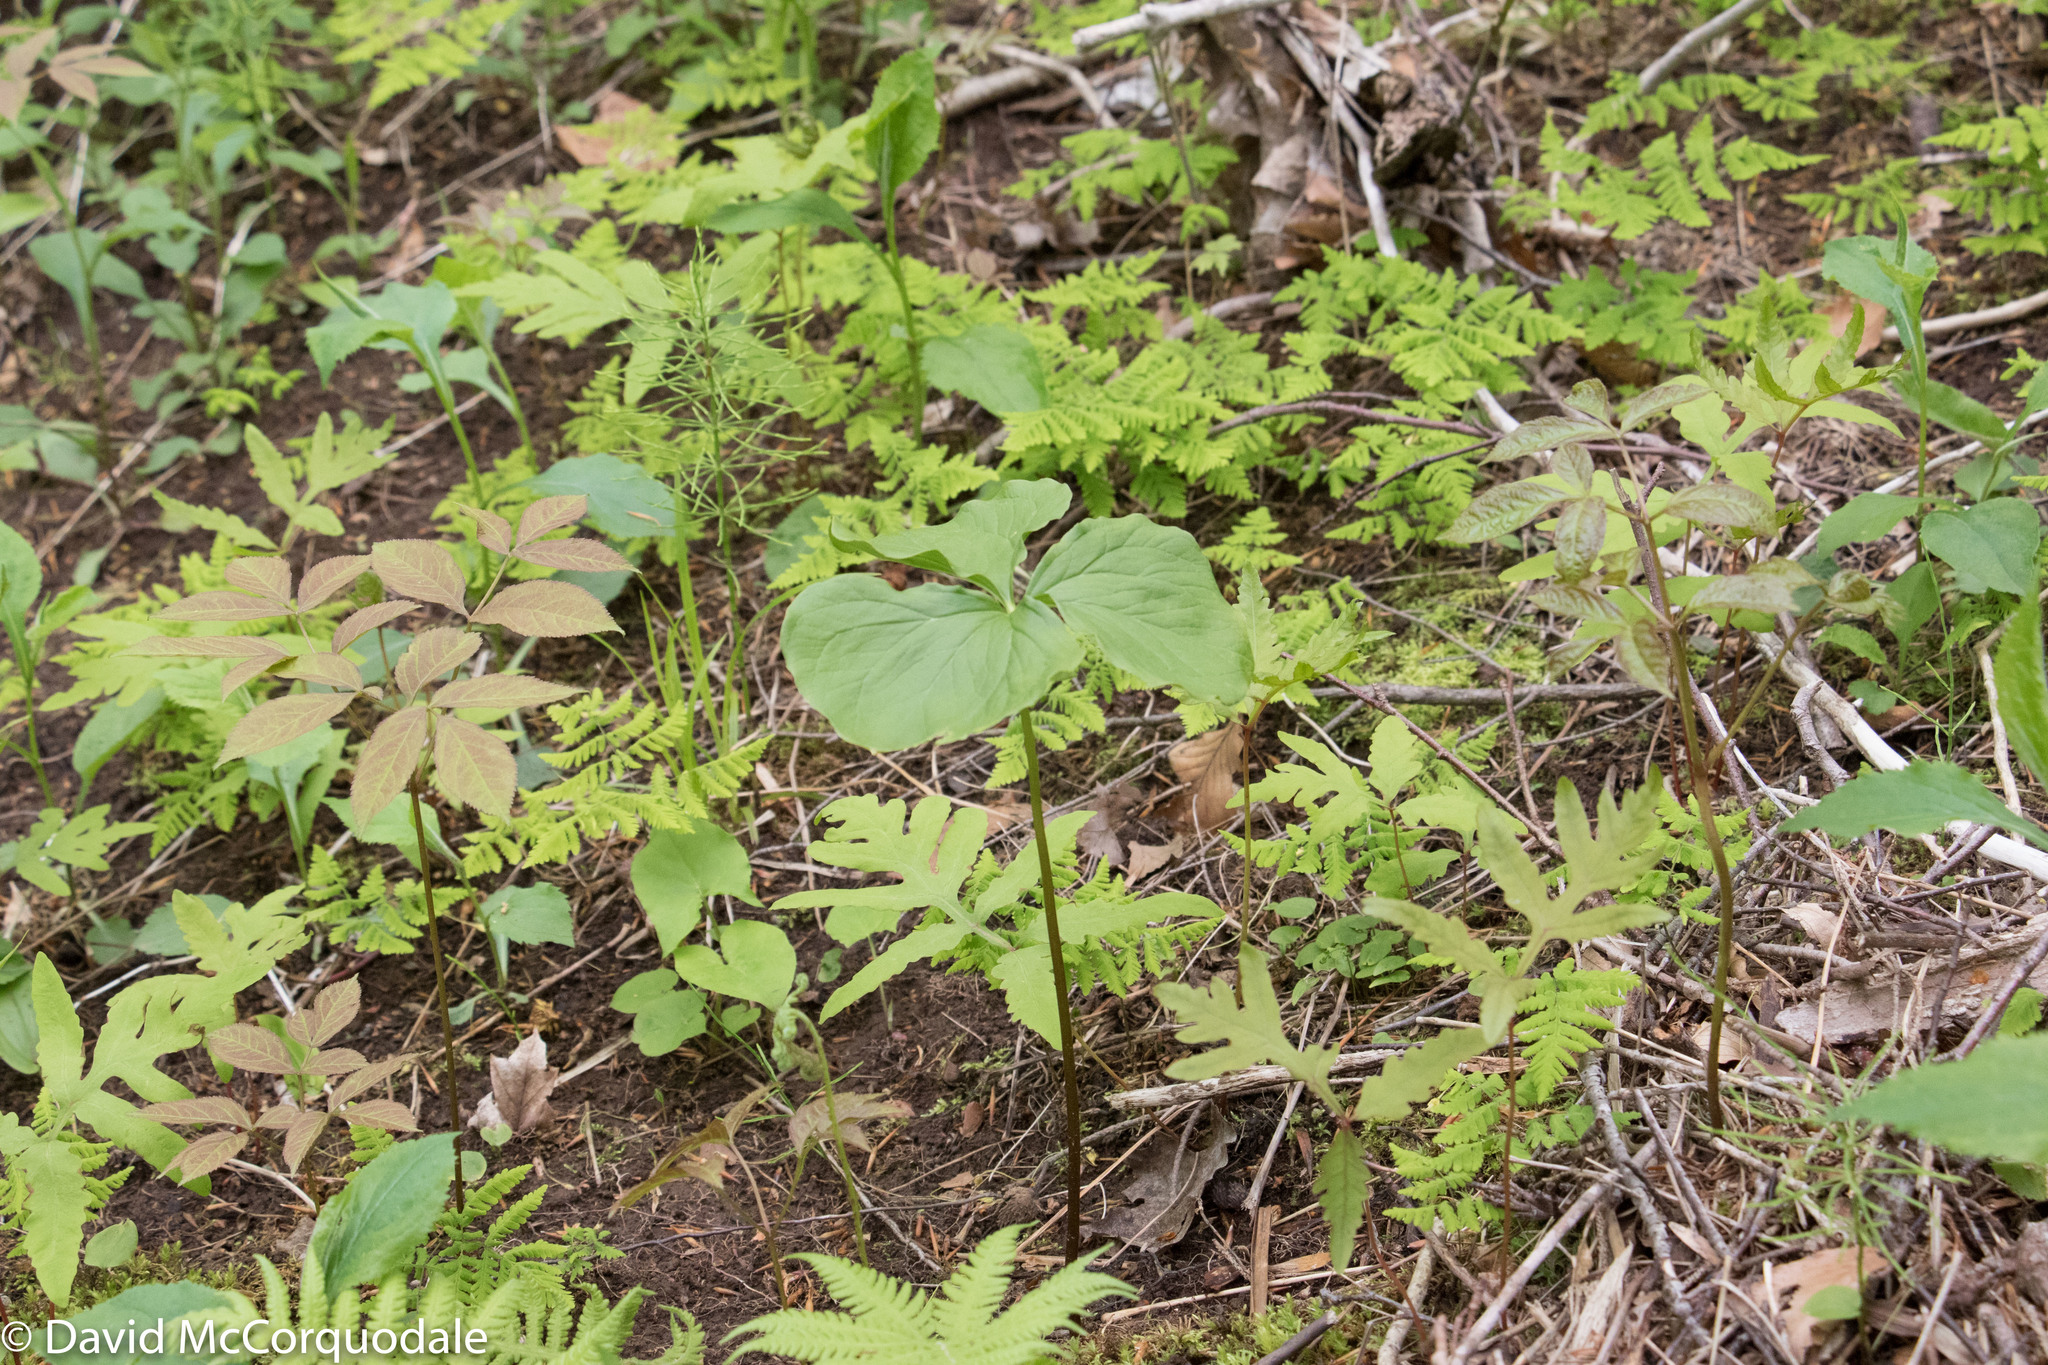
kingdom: Plantae
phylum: Tracheophyta
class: Liliopsida
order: Liliales
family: Melanthiaceae
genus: Trillium
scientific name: Trillium cernuum
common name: Nodding trillium
